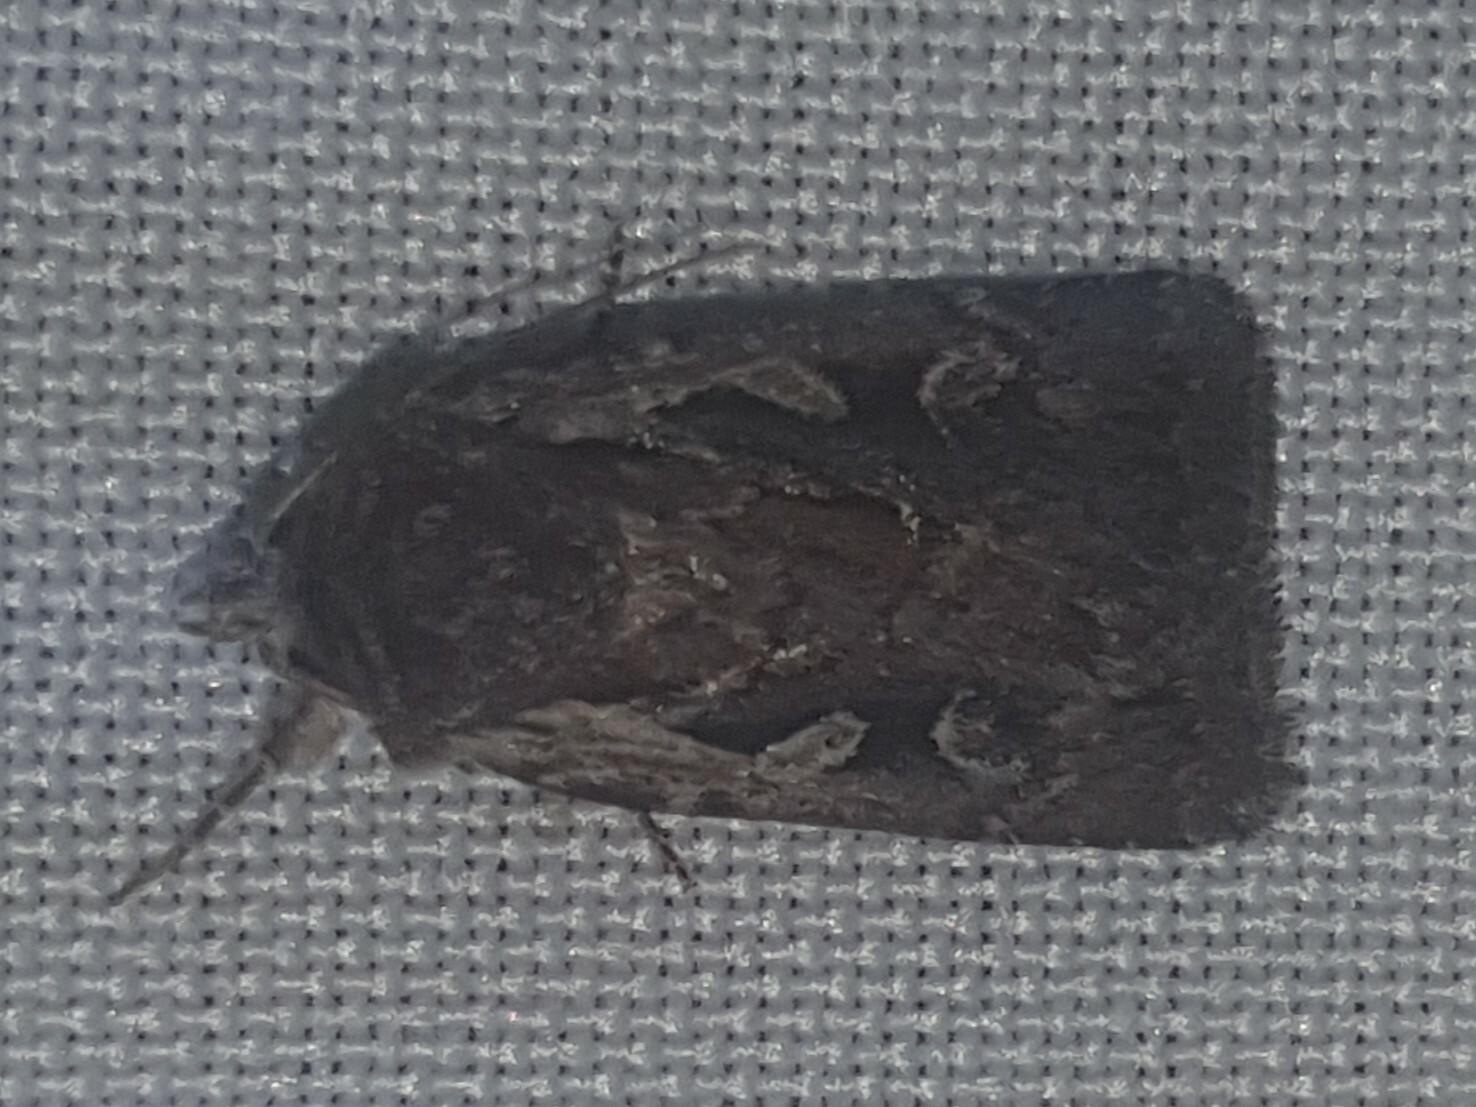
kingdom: Animalia
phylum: Arthropoda
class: Insecta
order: Lepidoptera
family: Noctuidae
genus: Xestia
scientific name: Xestia agathina
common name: Heath rustic
